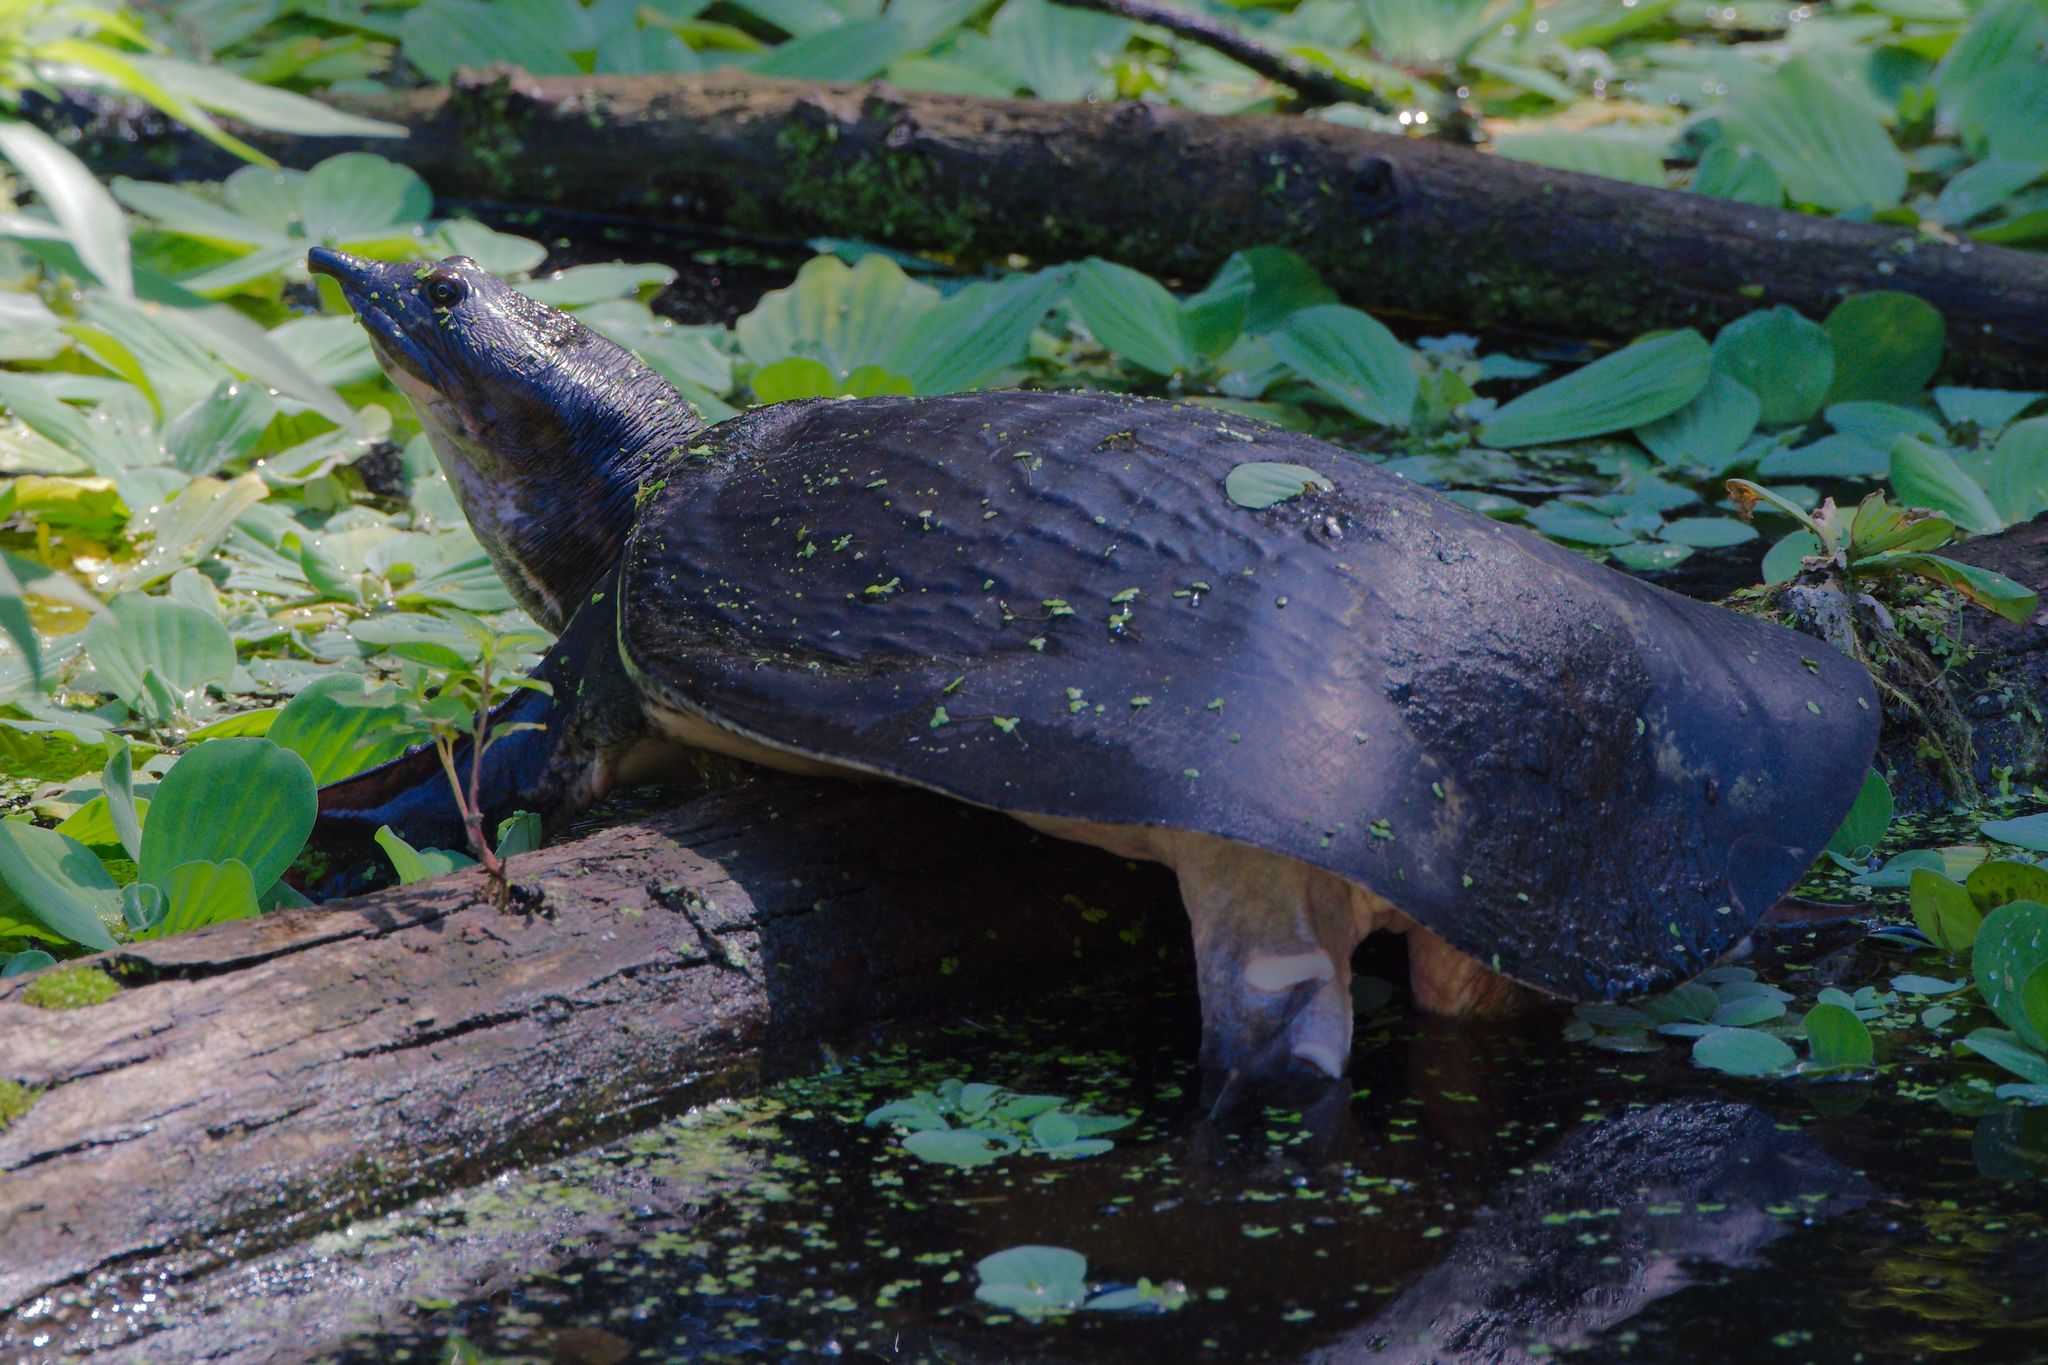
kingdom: Animalia
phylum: Chordata
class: Testudines
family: Trionychidae
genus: Apalone
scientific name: Apalone ferox
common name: Florida softshell turtle
